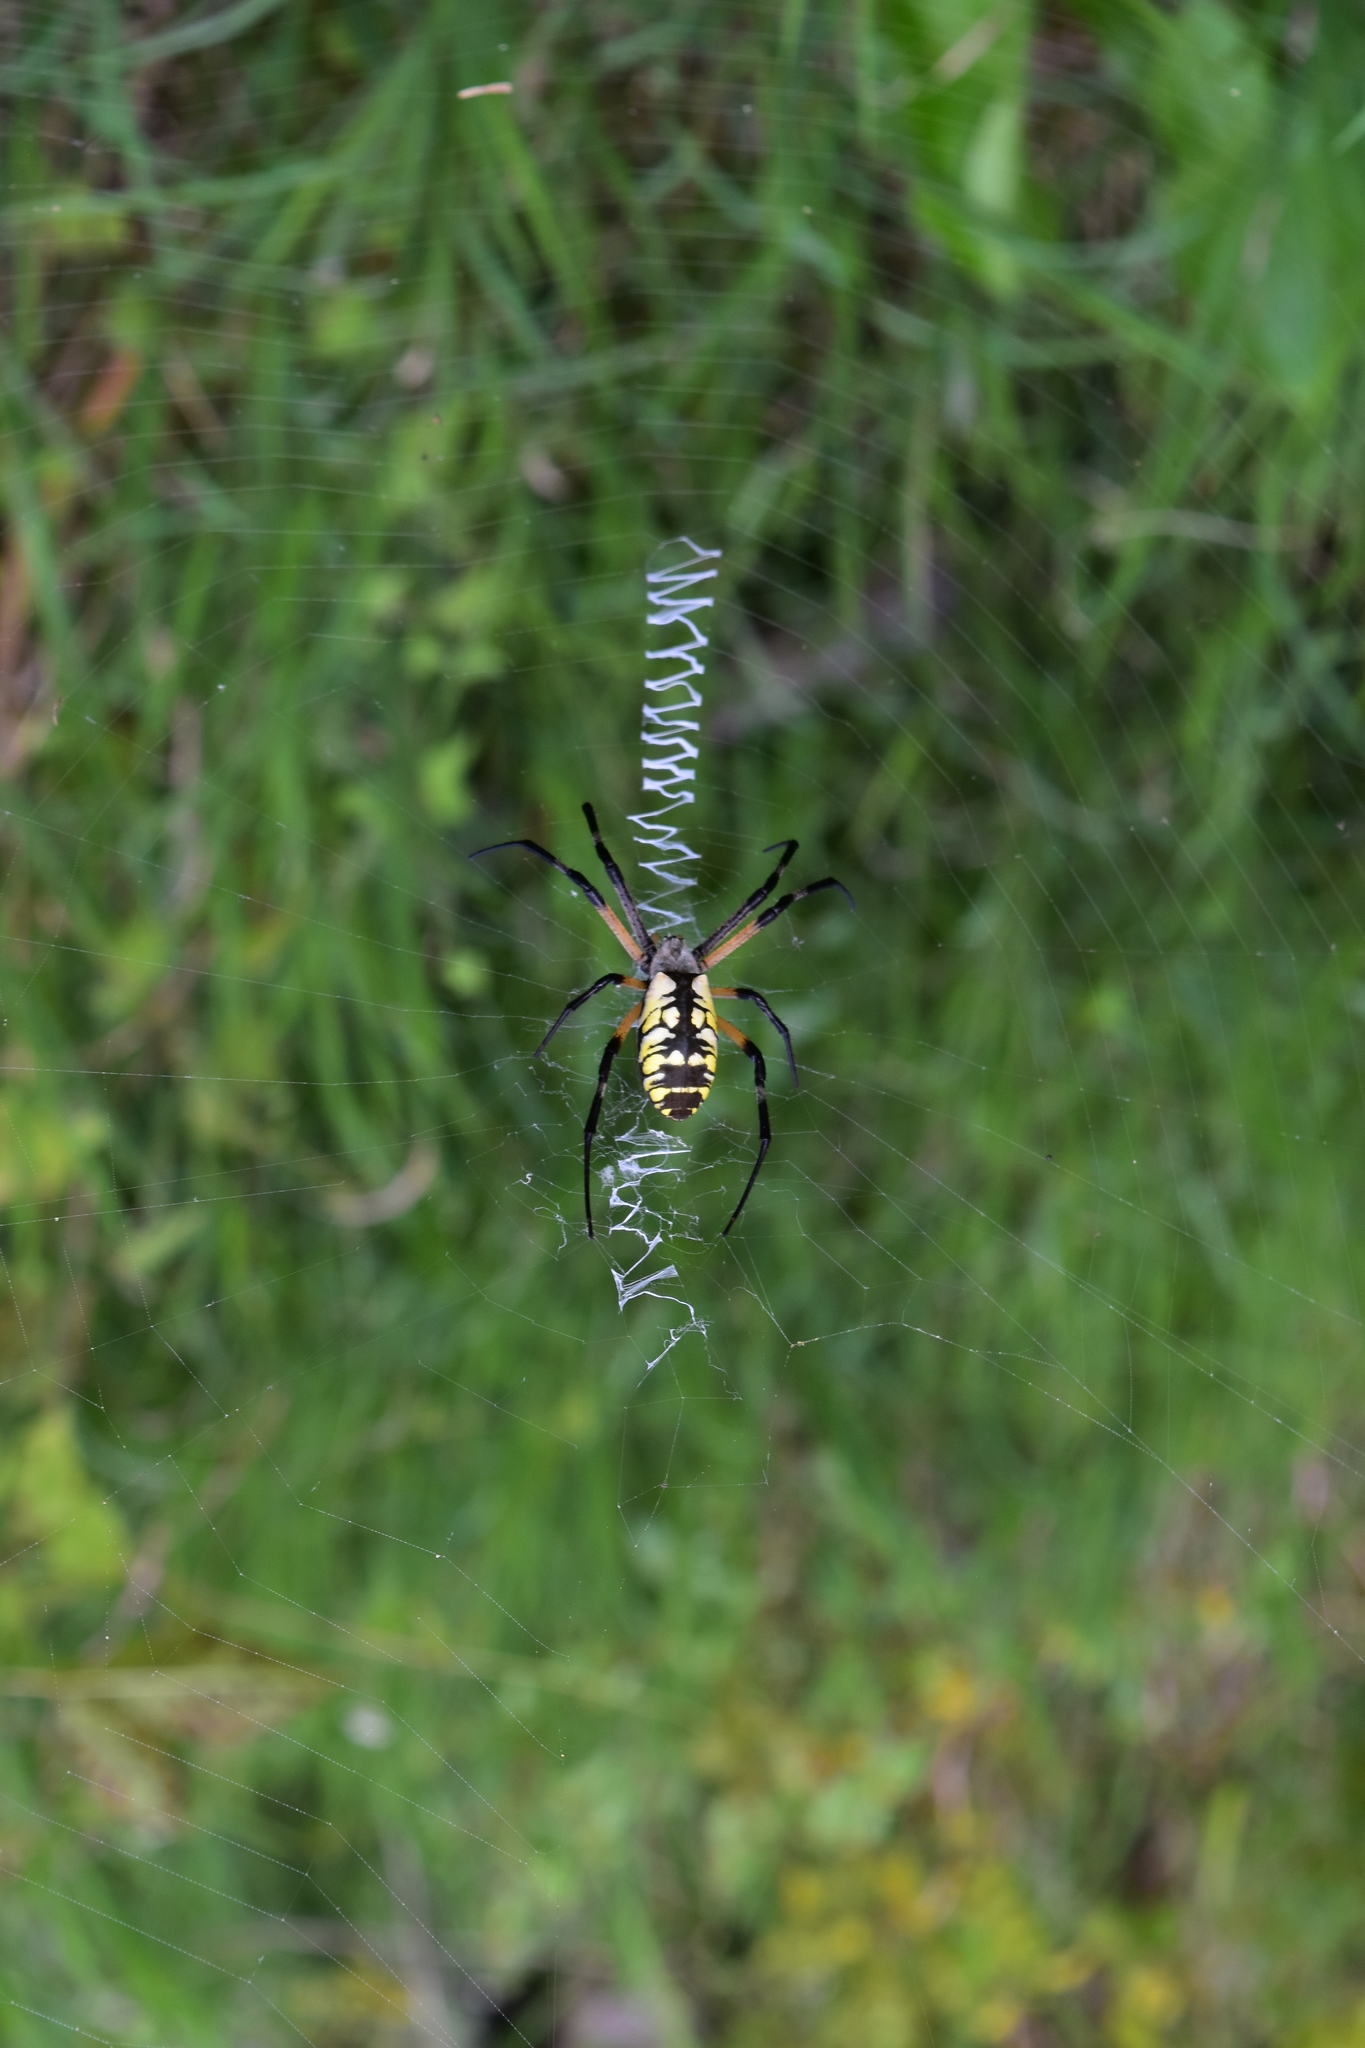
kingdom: Animalia
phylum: Arthropoda
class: Arachnida
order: Araneae
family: Araneidae
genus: Argiope
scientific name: Argiope aurantia
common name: Orb weavers
